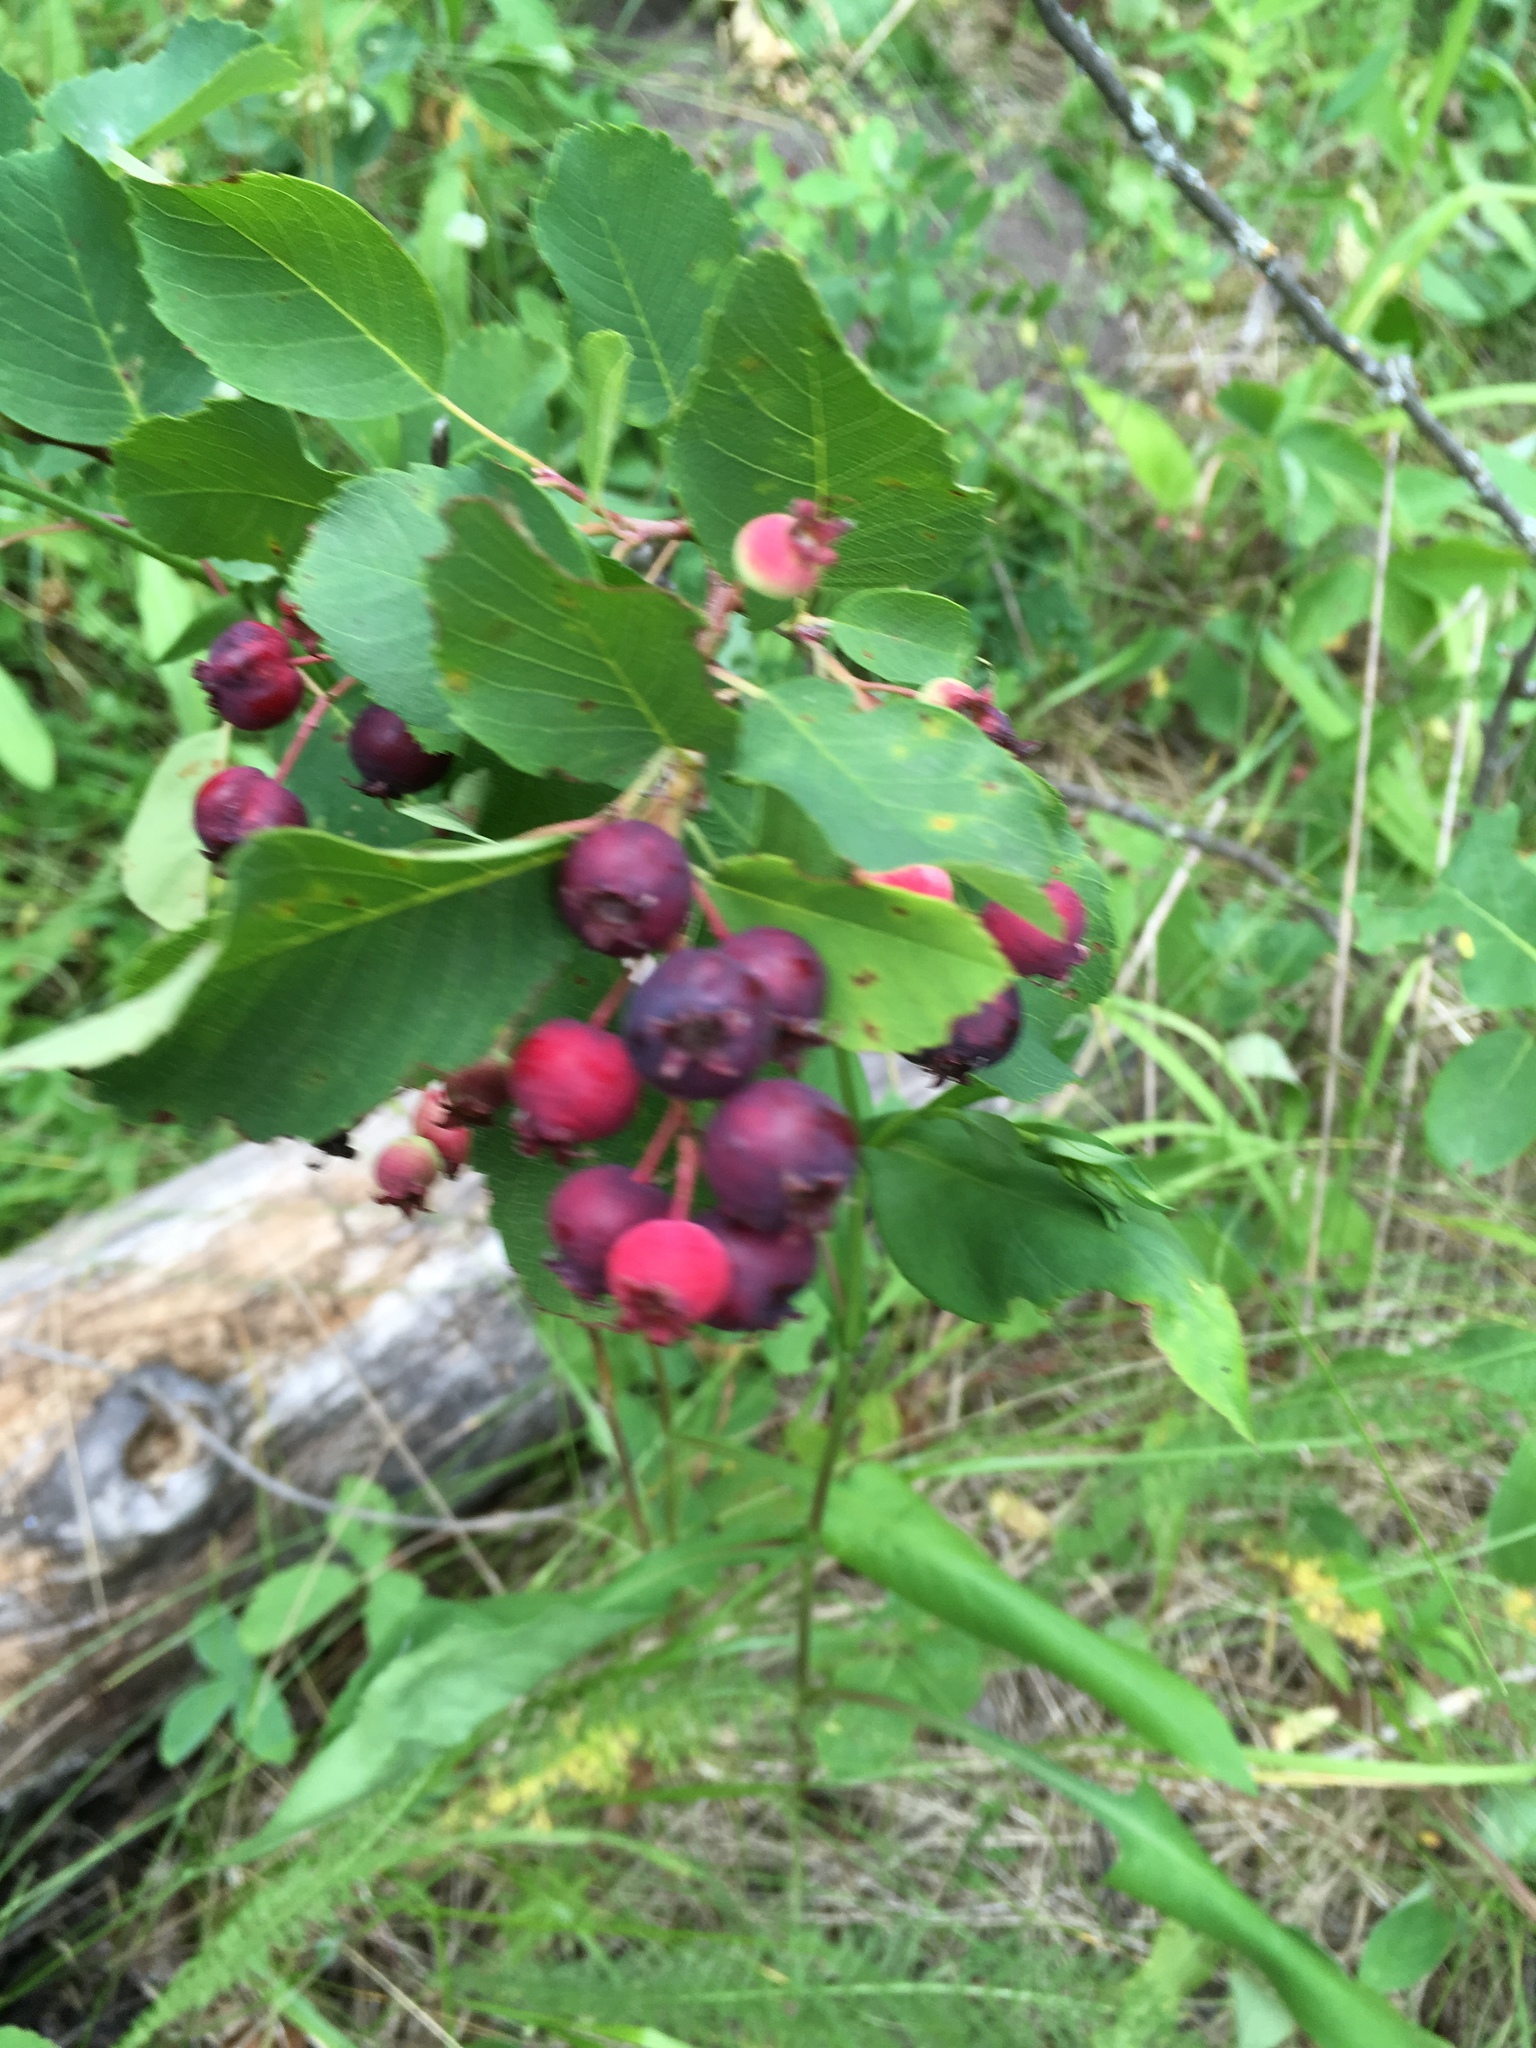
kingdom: Plantae
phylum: Tracheophyta
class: Magnoliopsida
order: Rosales
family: Rosaceae
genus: Amelanchier
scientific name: Amelanchier alnifolia
